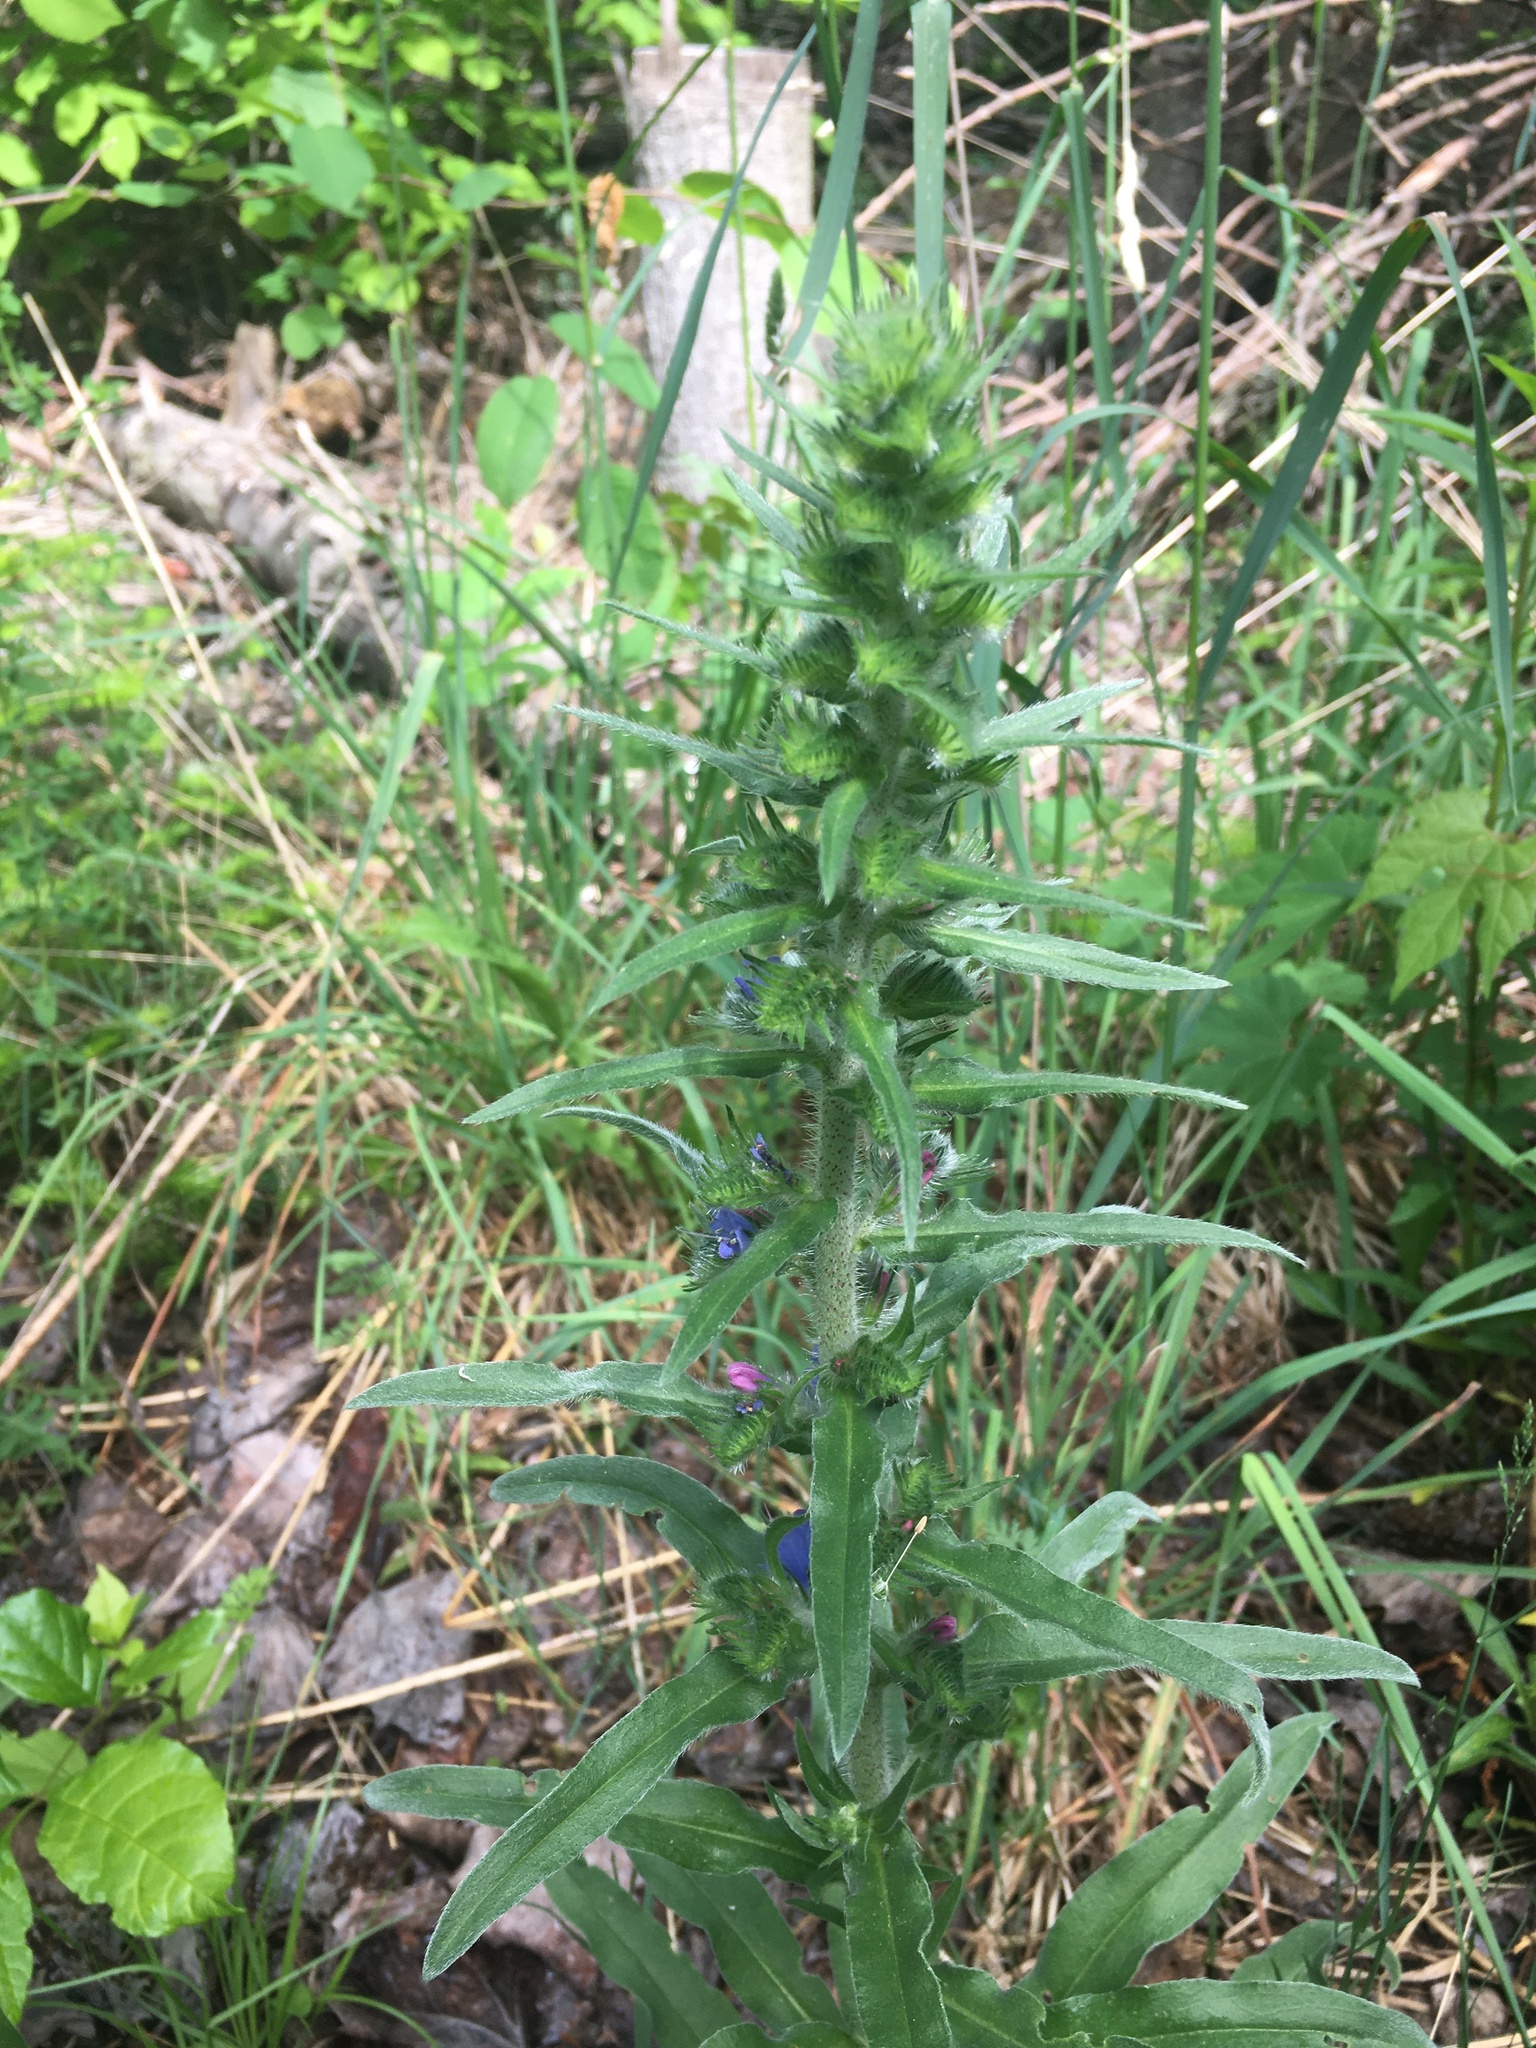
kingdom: Plantae
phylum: Tracheophyta
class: Magnoliopsida
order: Boraginales
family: Boraginaceae
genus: Echium
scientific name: Echium vulgare
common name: Common viper's bugloss
